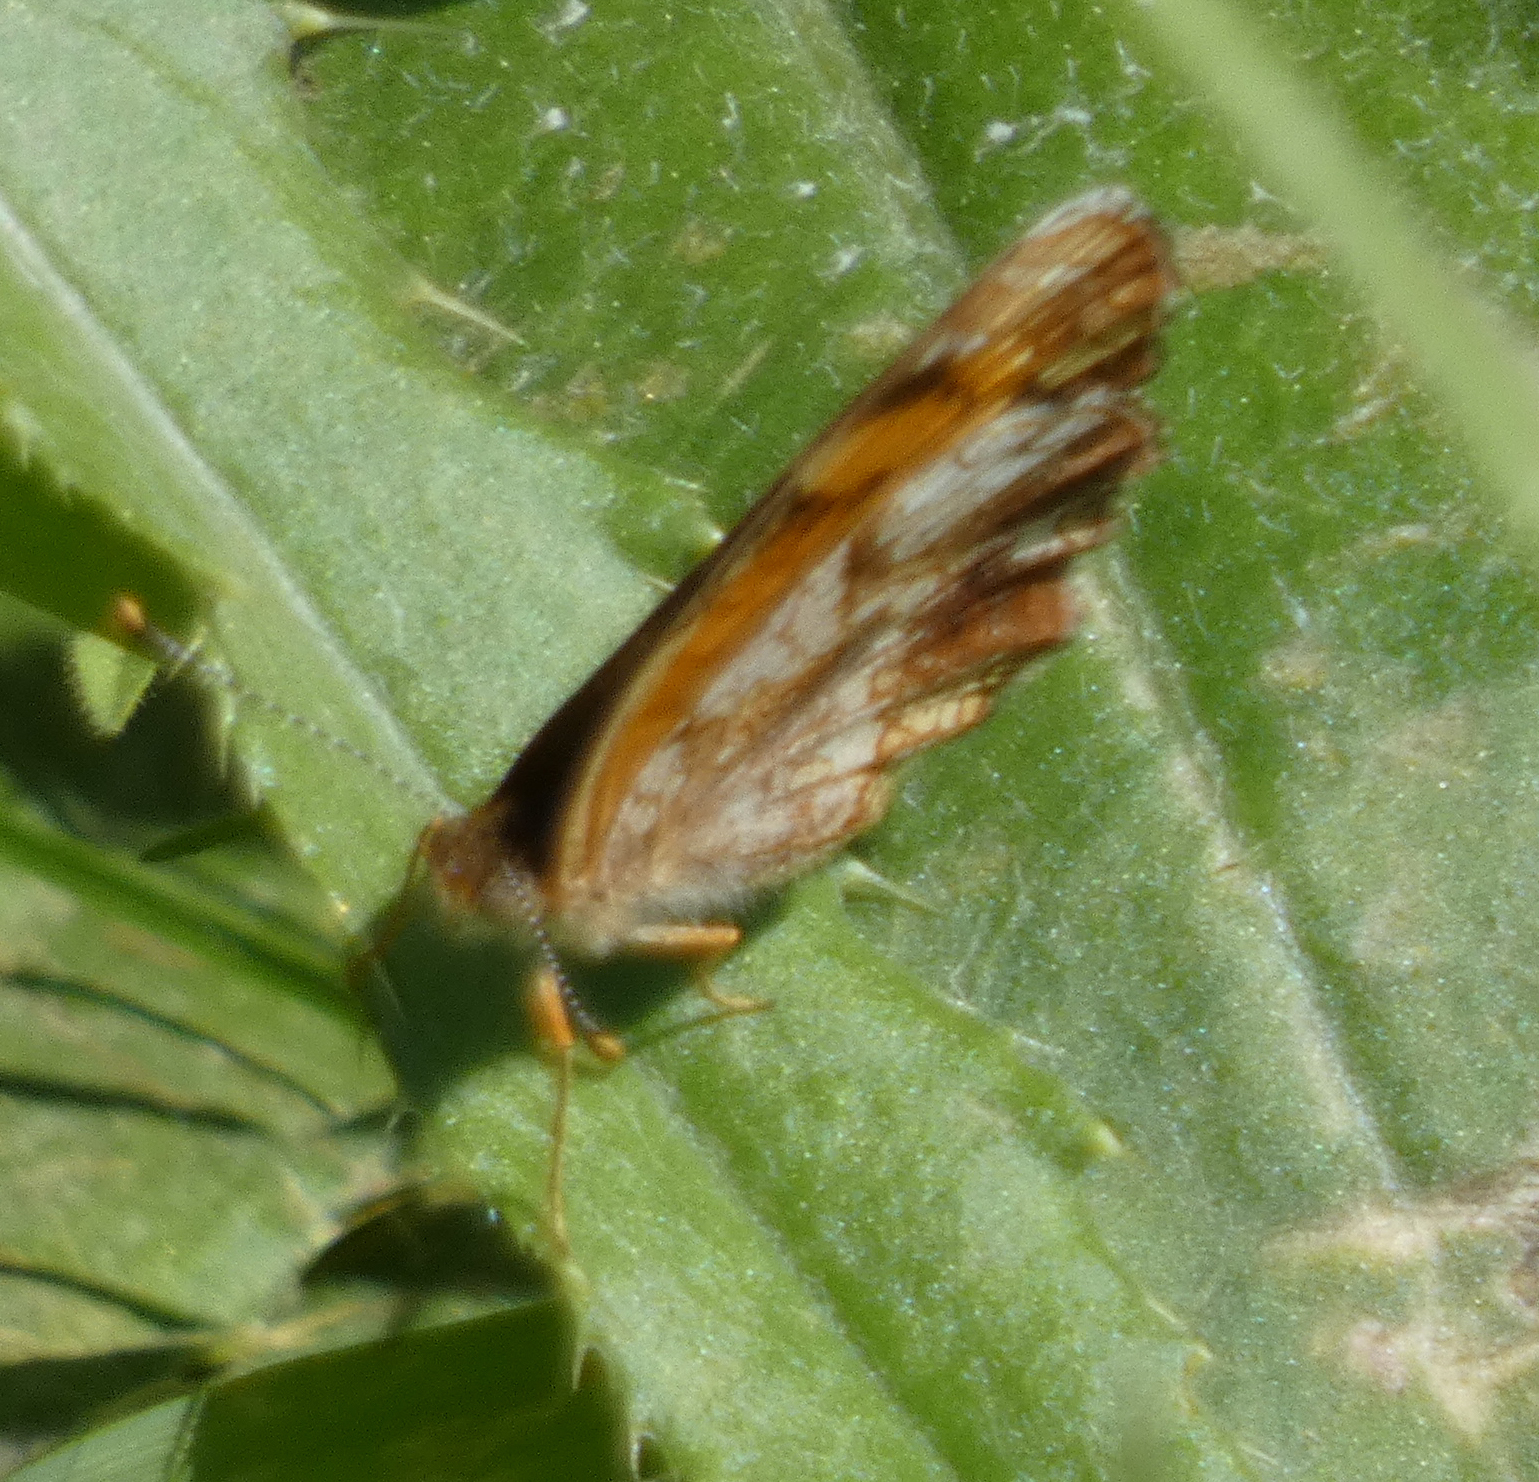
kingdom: Animalia
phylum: Arthropoda
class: Insecta
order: Lepidoptera
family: Nymphalidae
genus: Phyciodes
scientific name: Phyciodes tharos
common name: Pearl crescent
